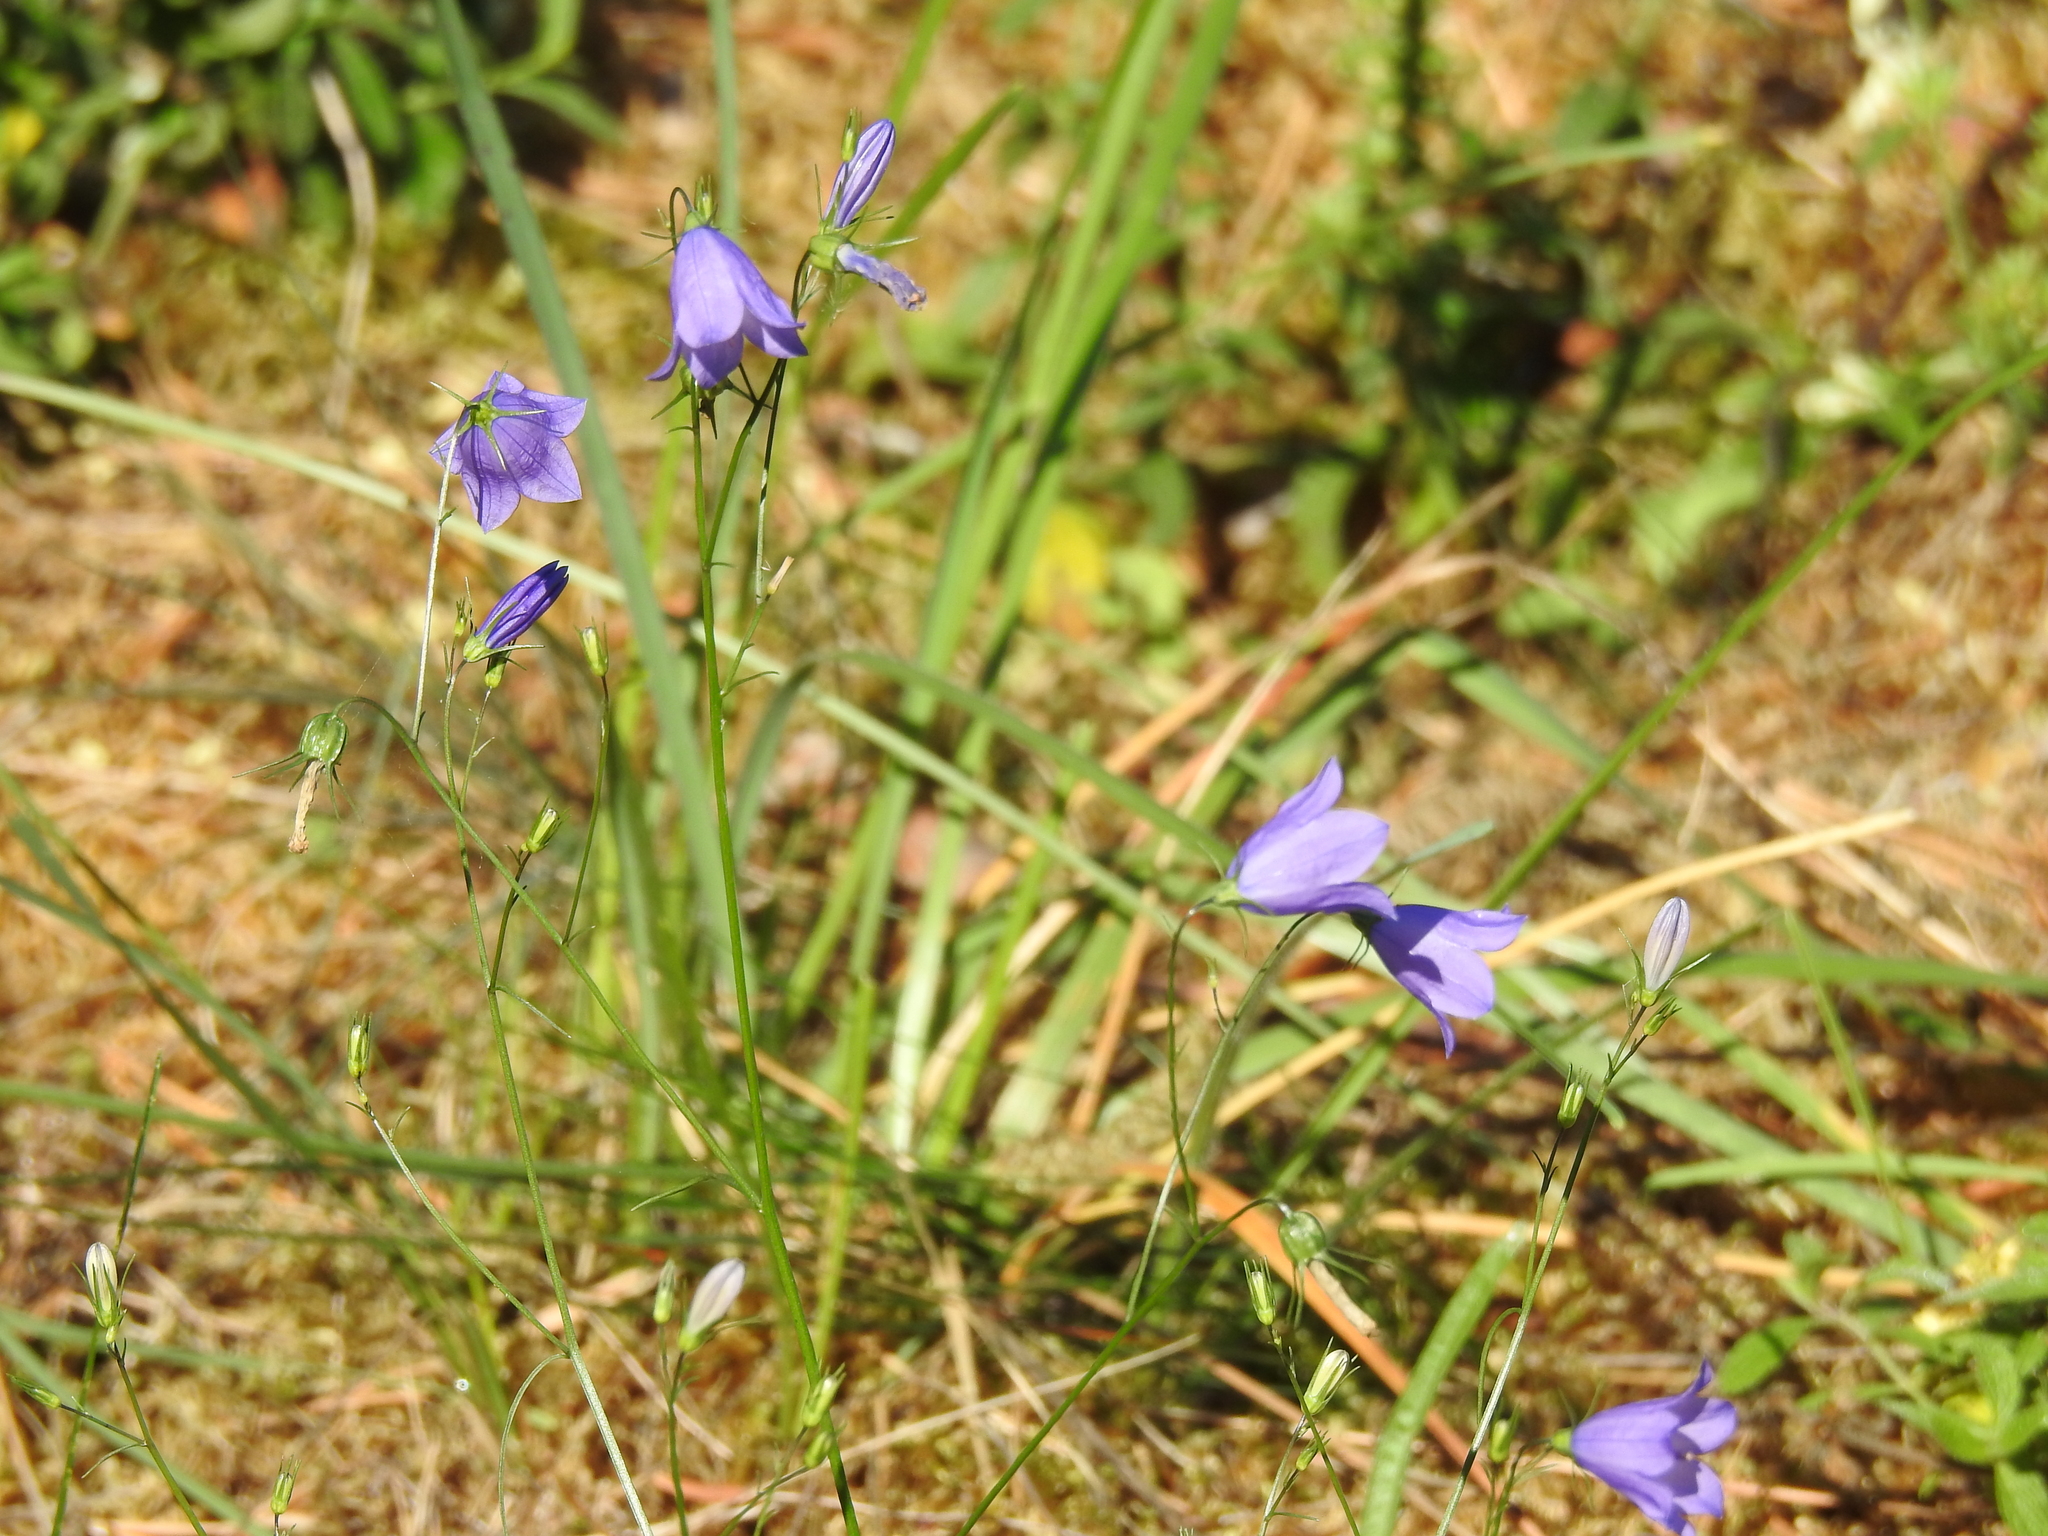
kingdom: Plantae
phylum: Tracheophyta
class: Magnoliopsida
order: Asterales
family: Campanulaceae
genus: Campanula
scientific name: Campanula rotundifolia
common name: Harebell
